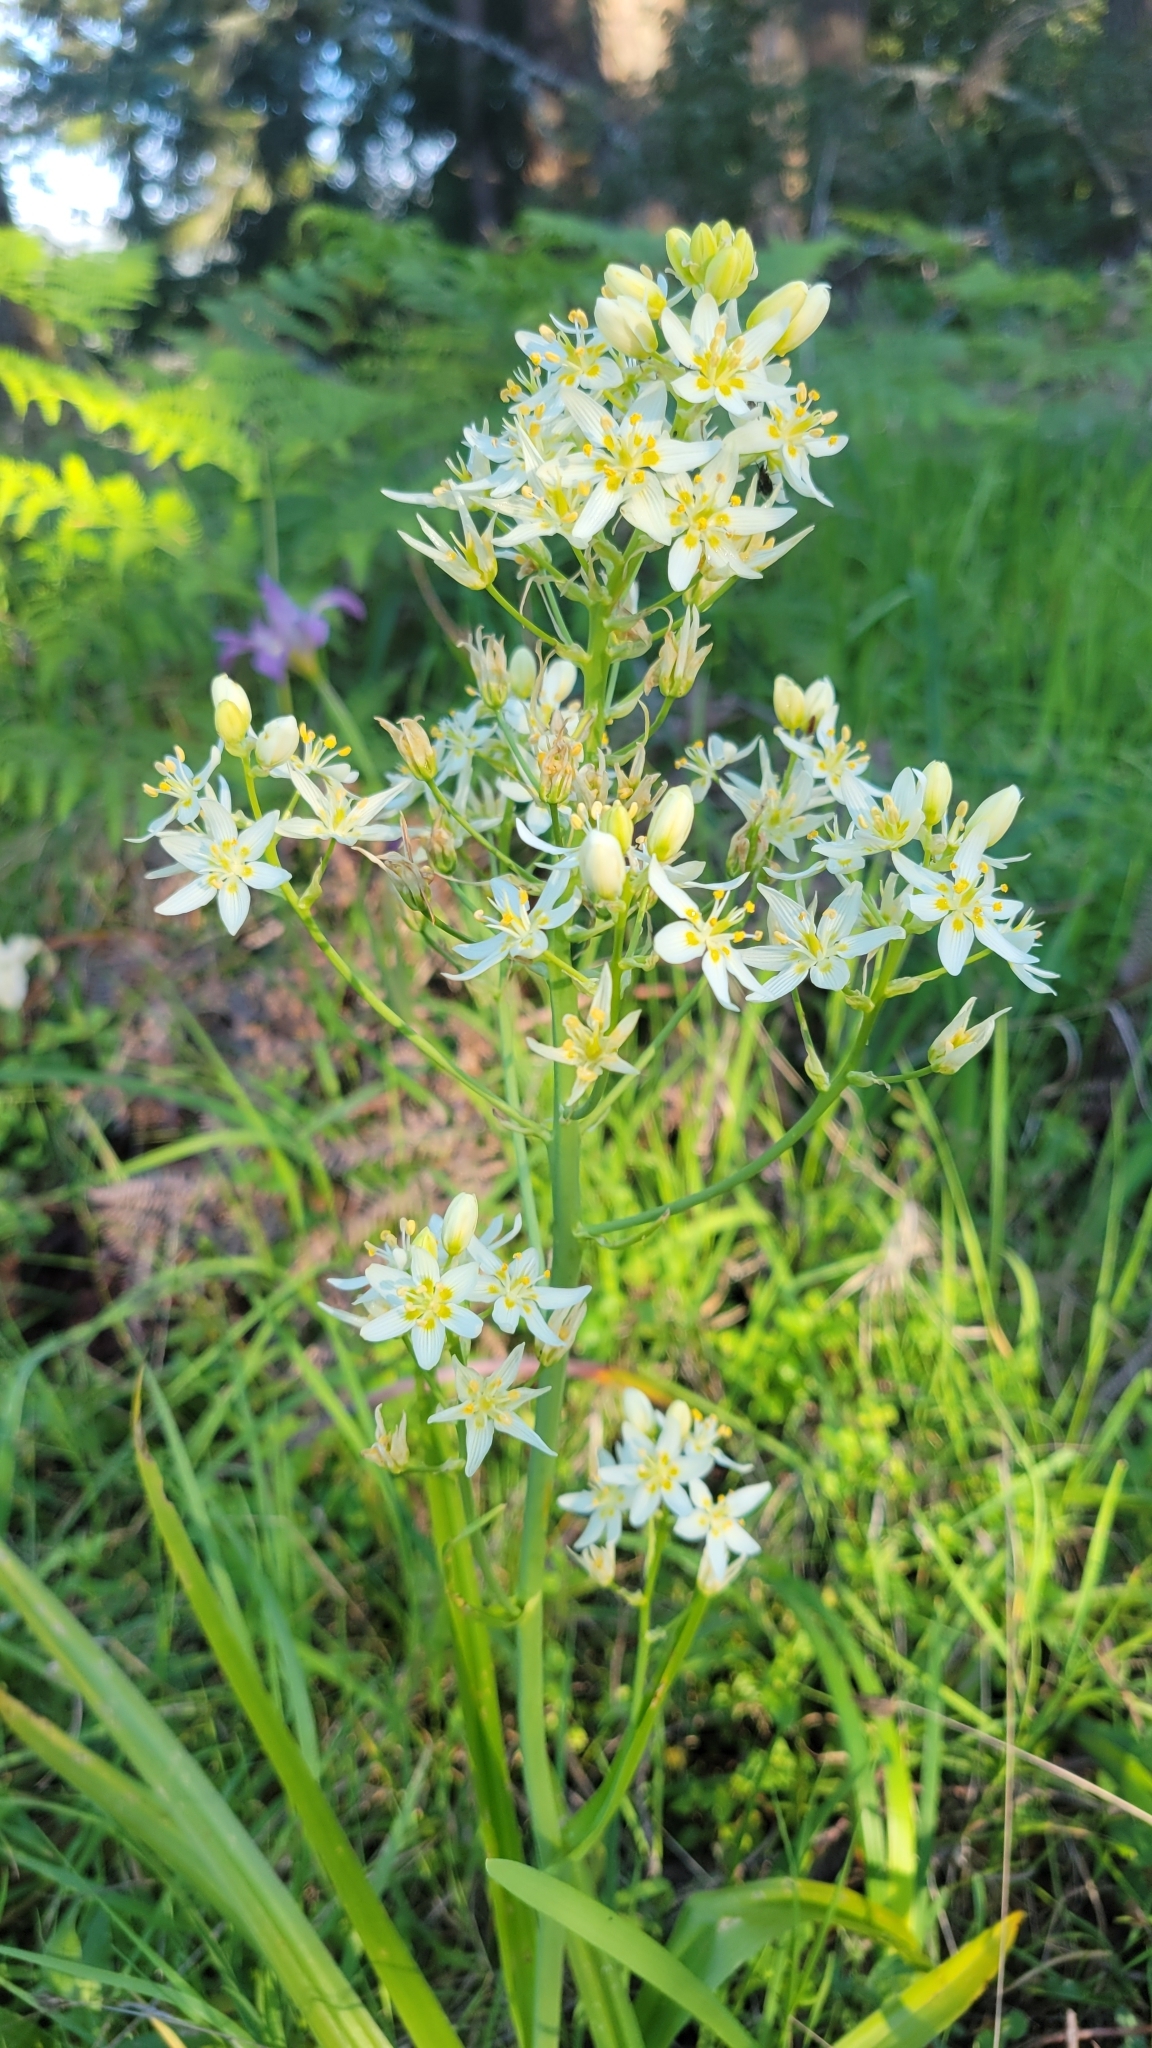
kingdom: Plantae
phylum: Tracheophyta
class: Liliopsida
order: Liliales
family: Melanthiaceae
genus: Toxicoscordion
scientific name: Toxicoscordion fremontii
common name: Fremont's death camas
